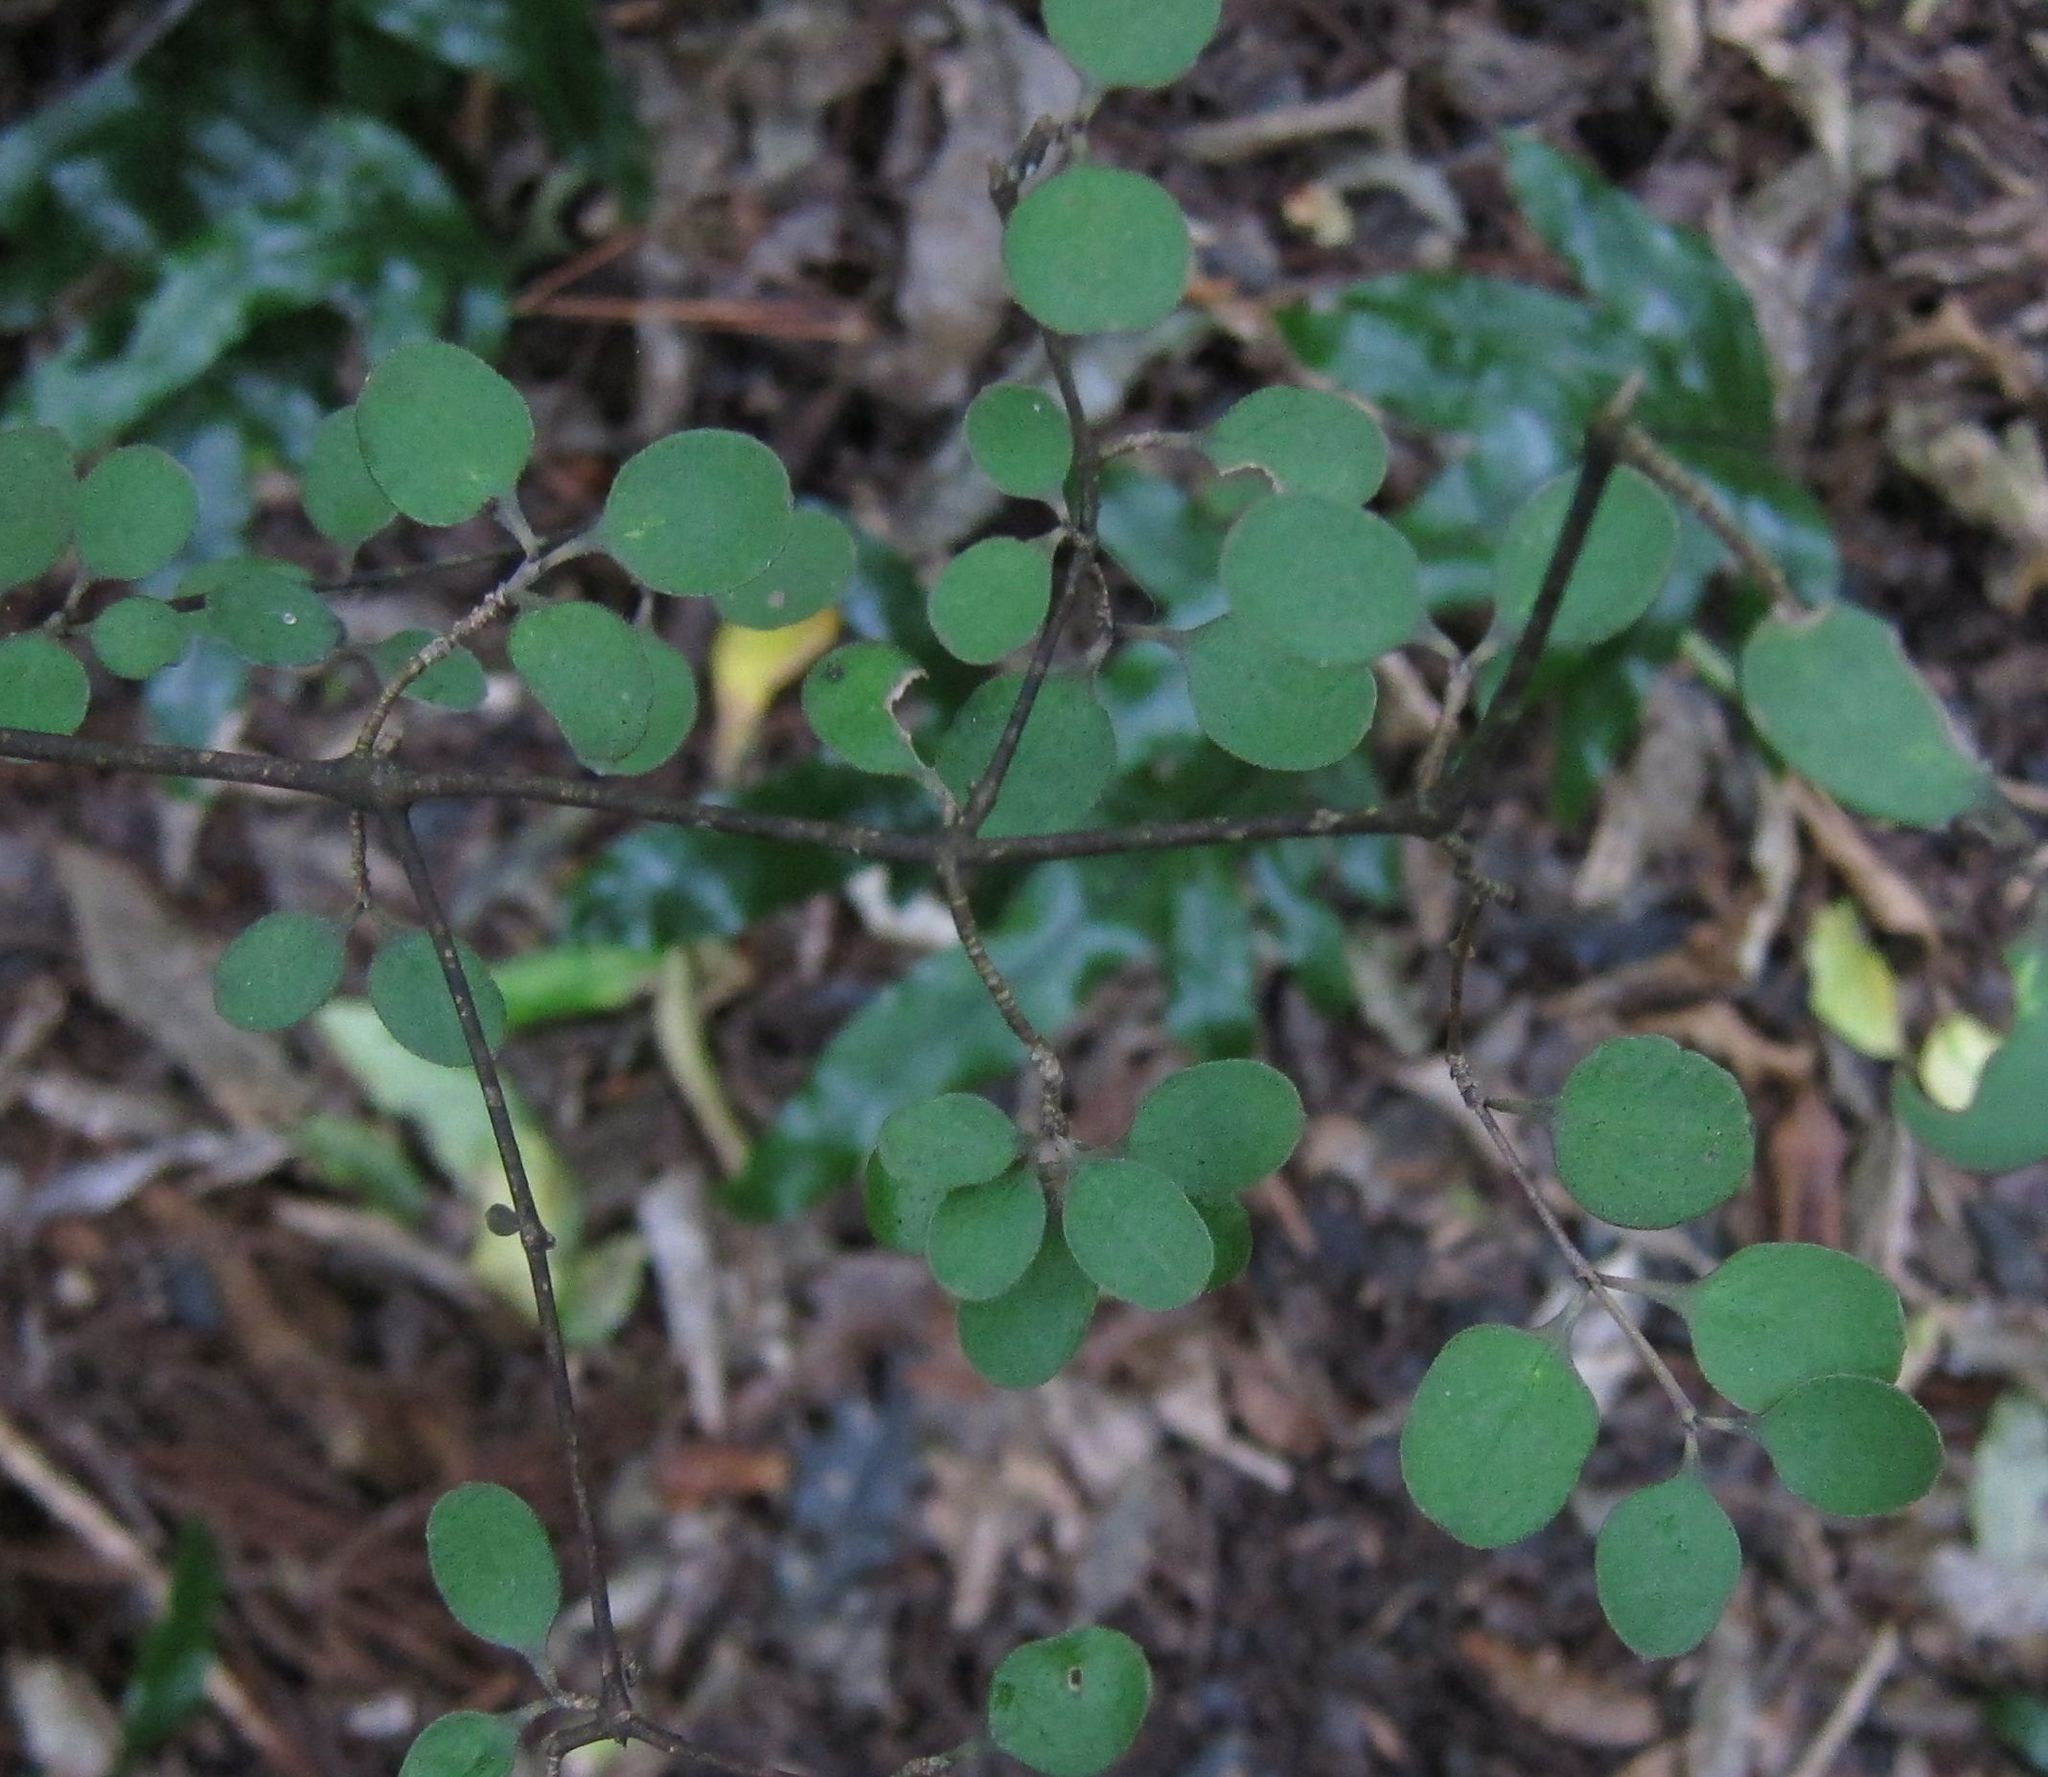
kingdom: Plantae
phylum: Tracheophyta
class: Magnoliopsida
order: Gentianales
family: Rubiaceae
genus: Coprosma
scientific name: Coprosma crassifolia
